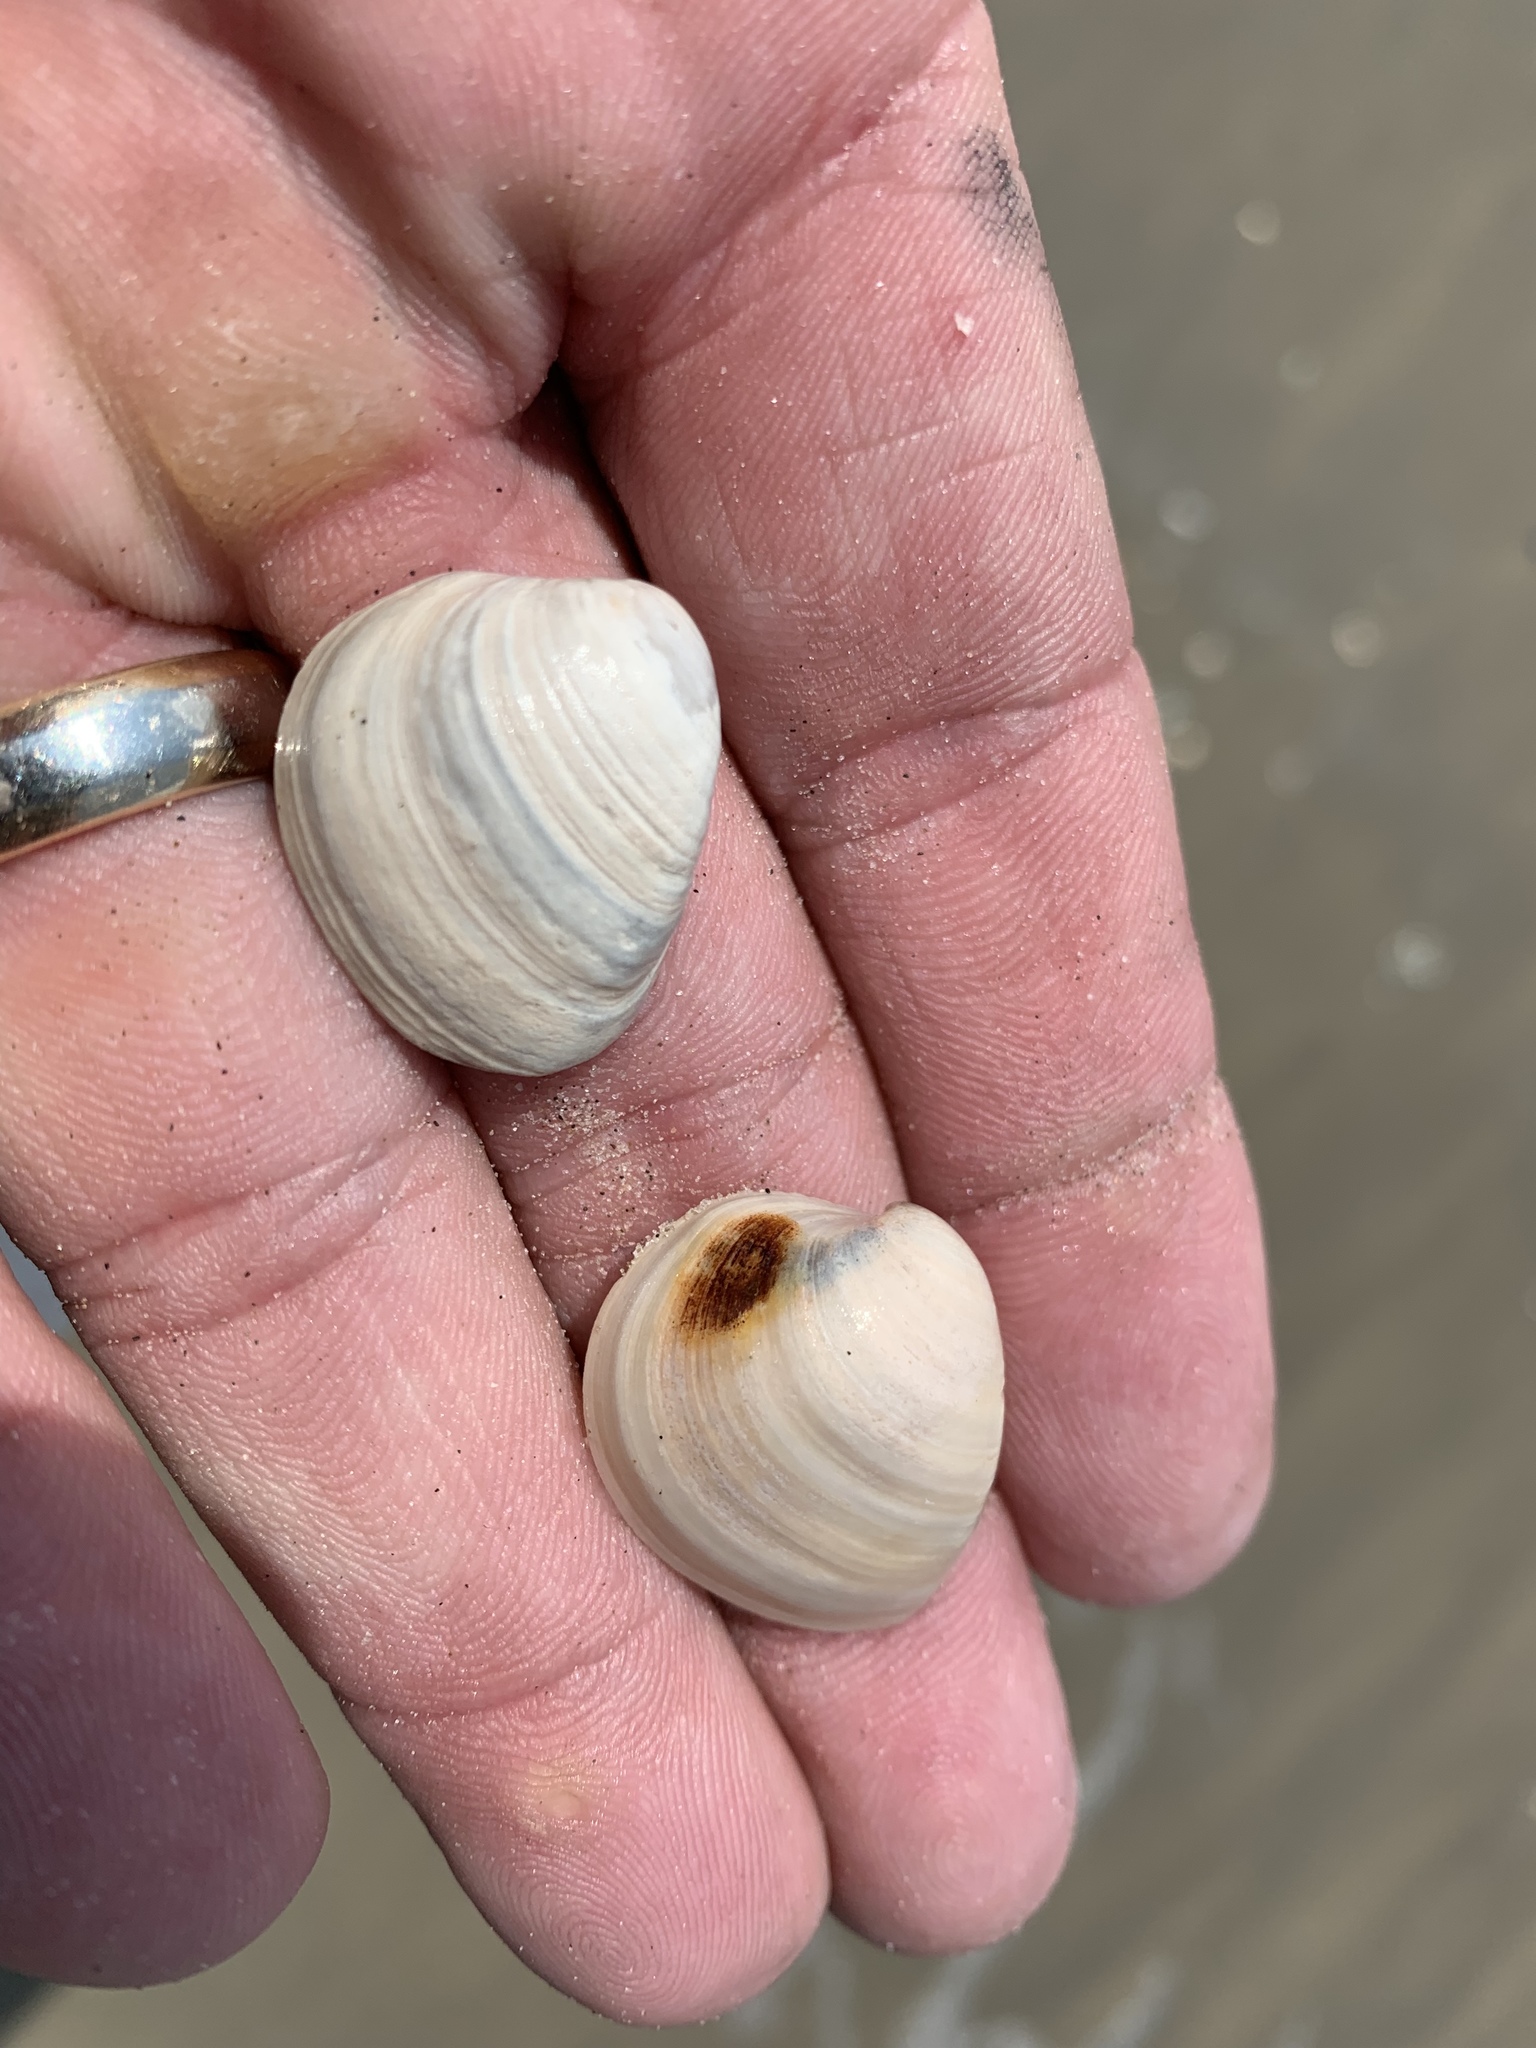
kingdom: Animalia
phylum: Mollusca
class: Bivalvia
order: Venerida
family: Mactridae
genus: Rangia
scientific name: Rangia cuneata
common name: Atlantic rangia
